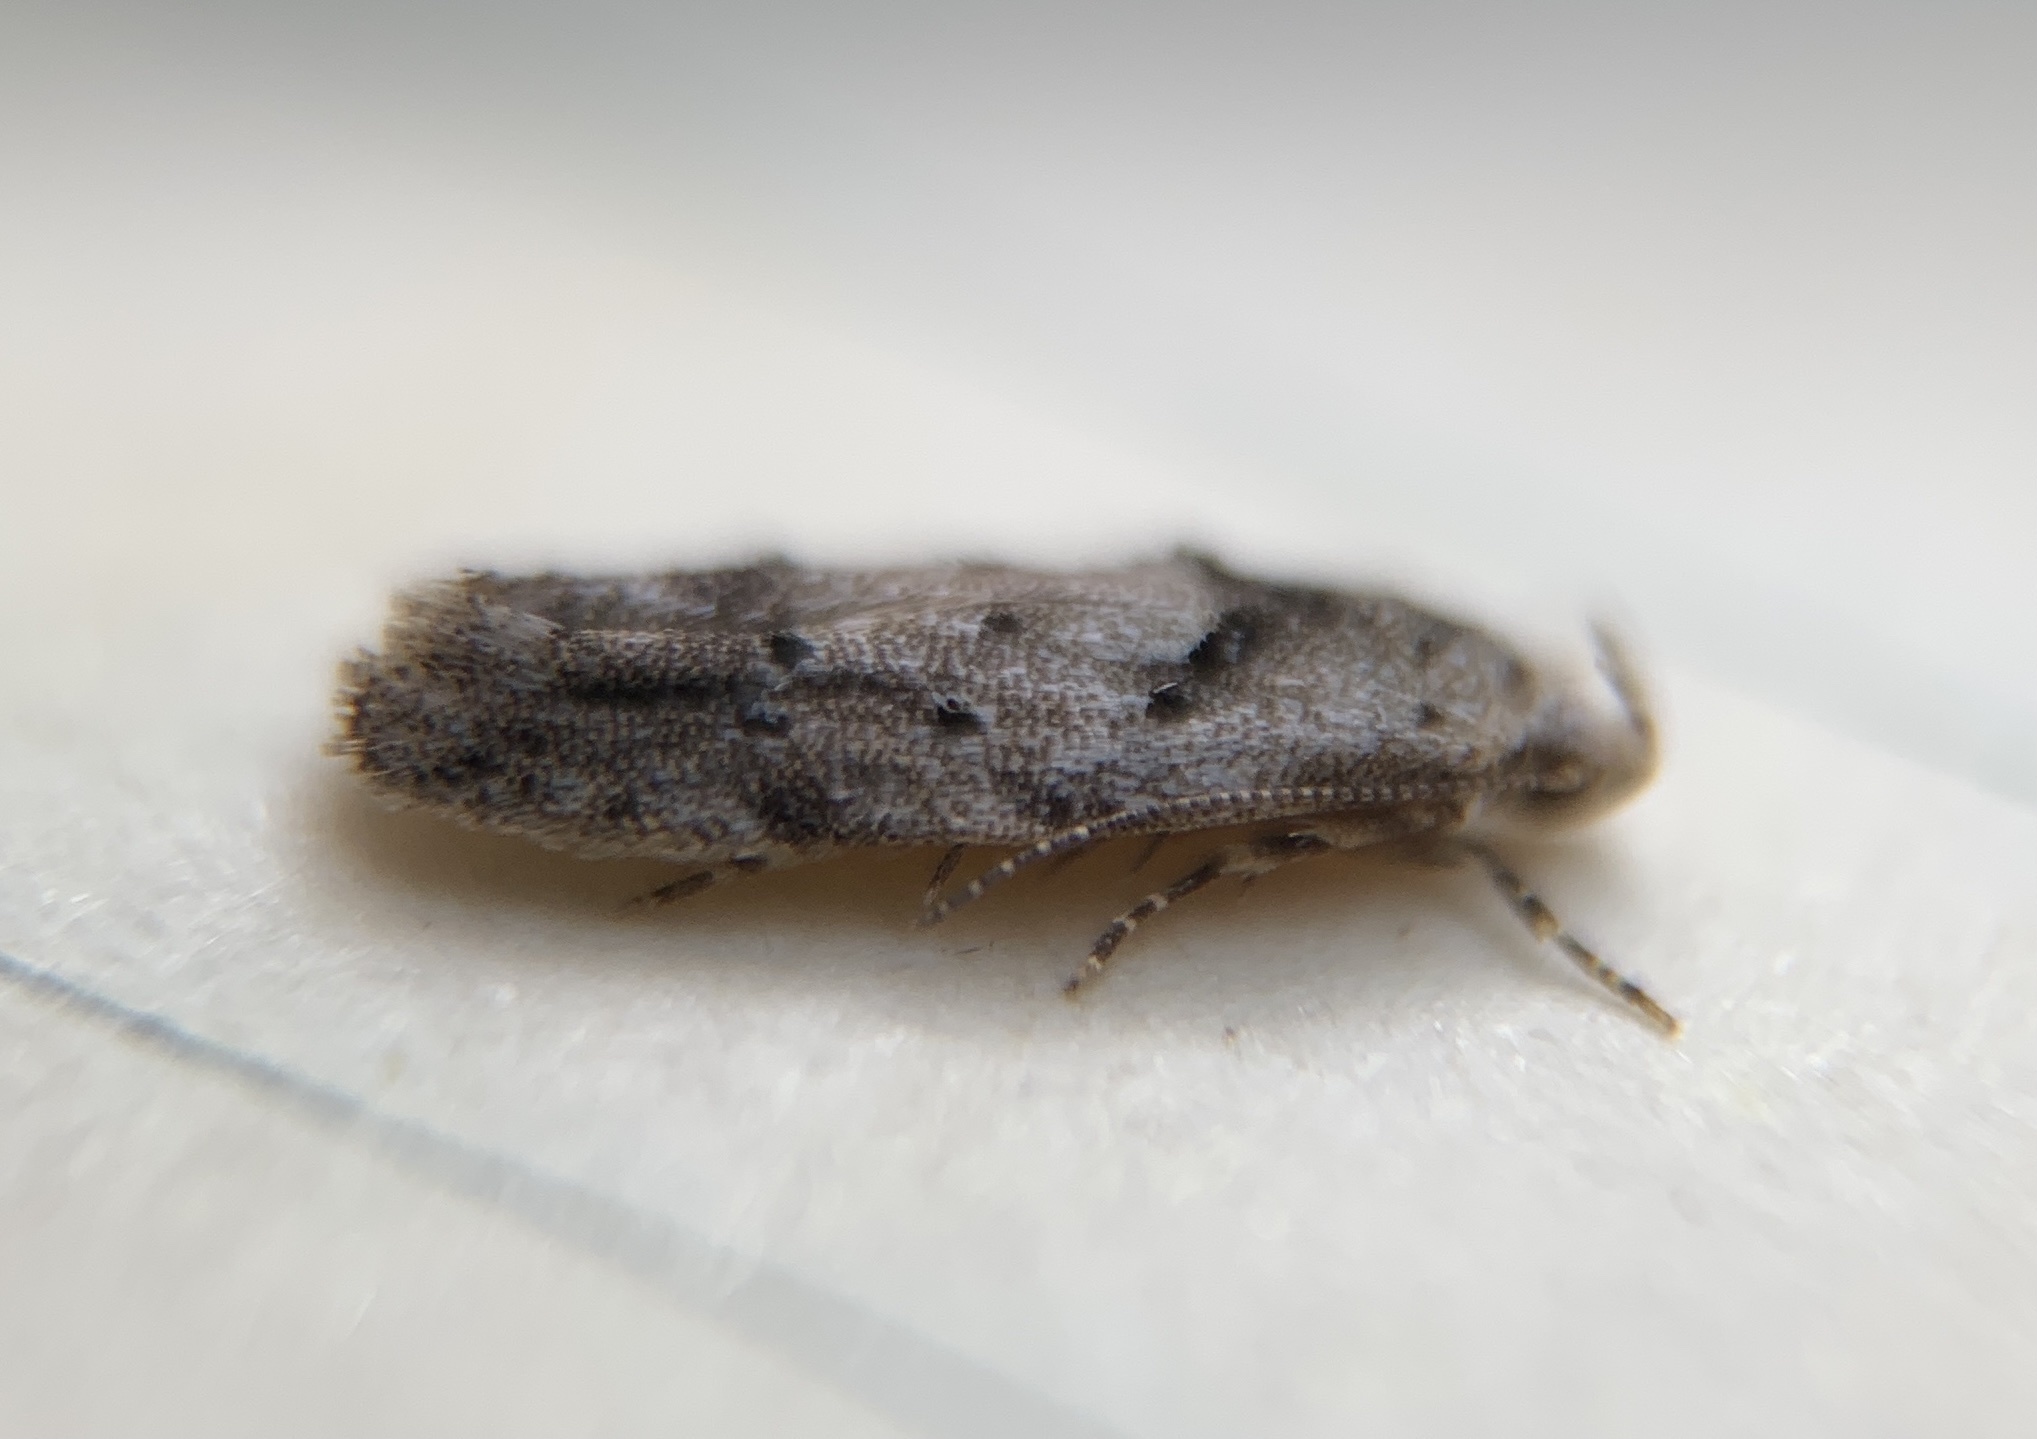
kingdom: Animalia
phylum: Arthropoda
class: Insecta
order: Lepidoptera
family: Gelechiidae
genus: Sinoe
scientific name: Sinoe robiniella
